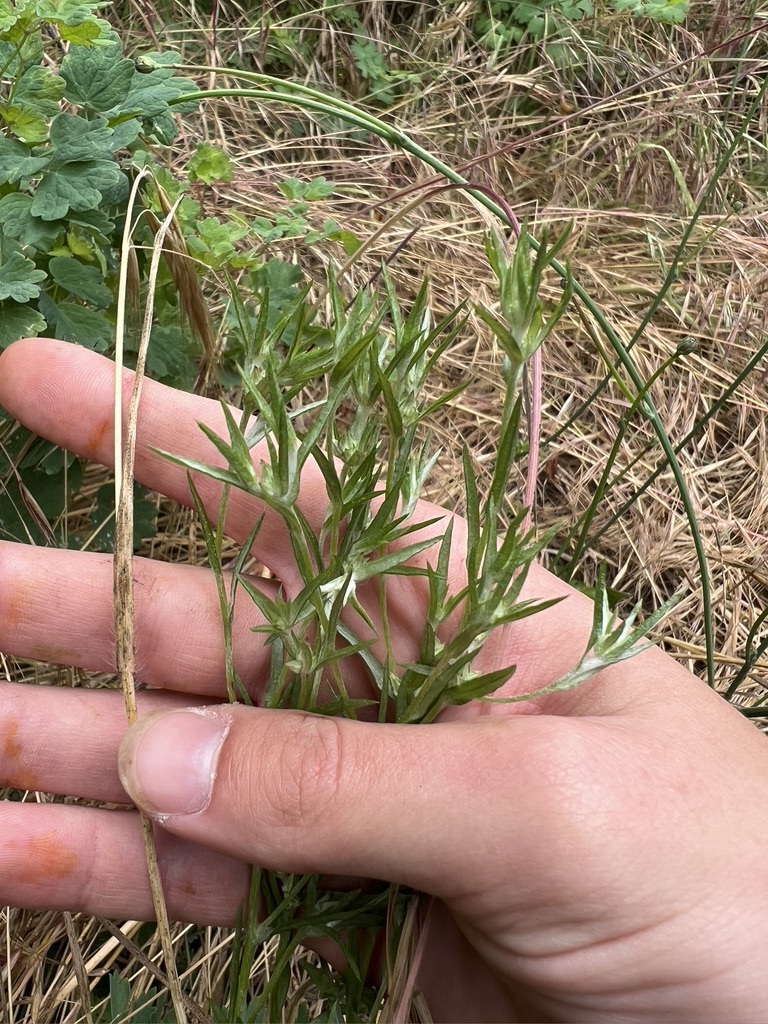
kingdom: Plantae
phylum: Tracheophyta
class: Magnoliopsida
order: Asterales
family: Asteraceae
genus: Logfia
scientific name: Logfia gallica
